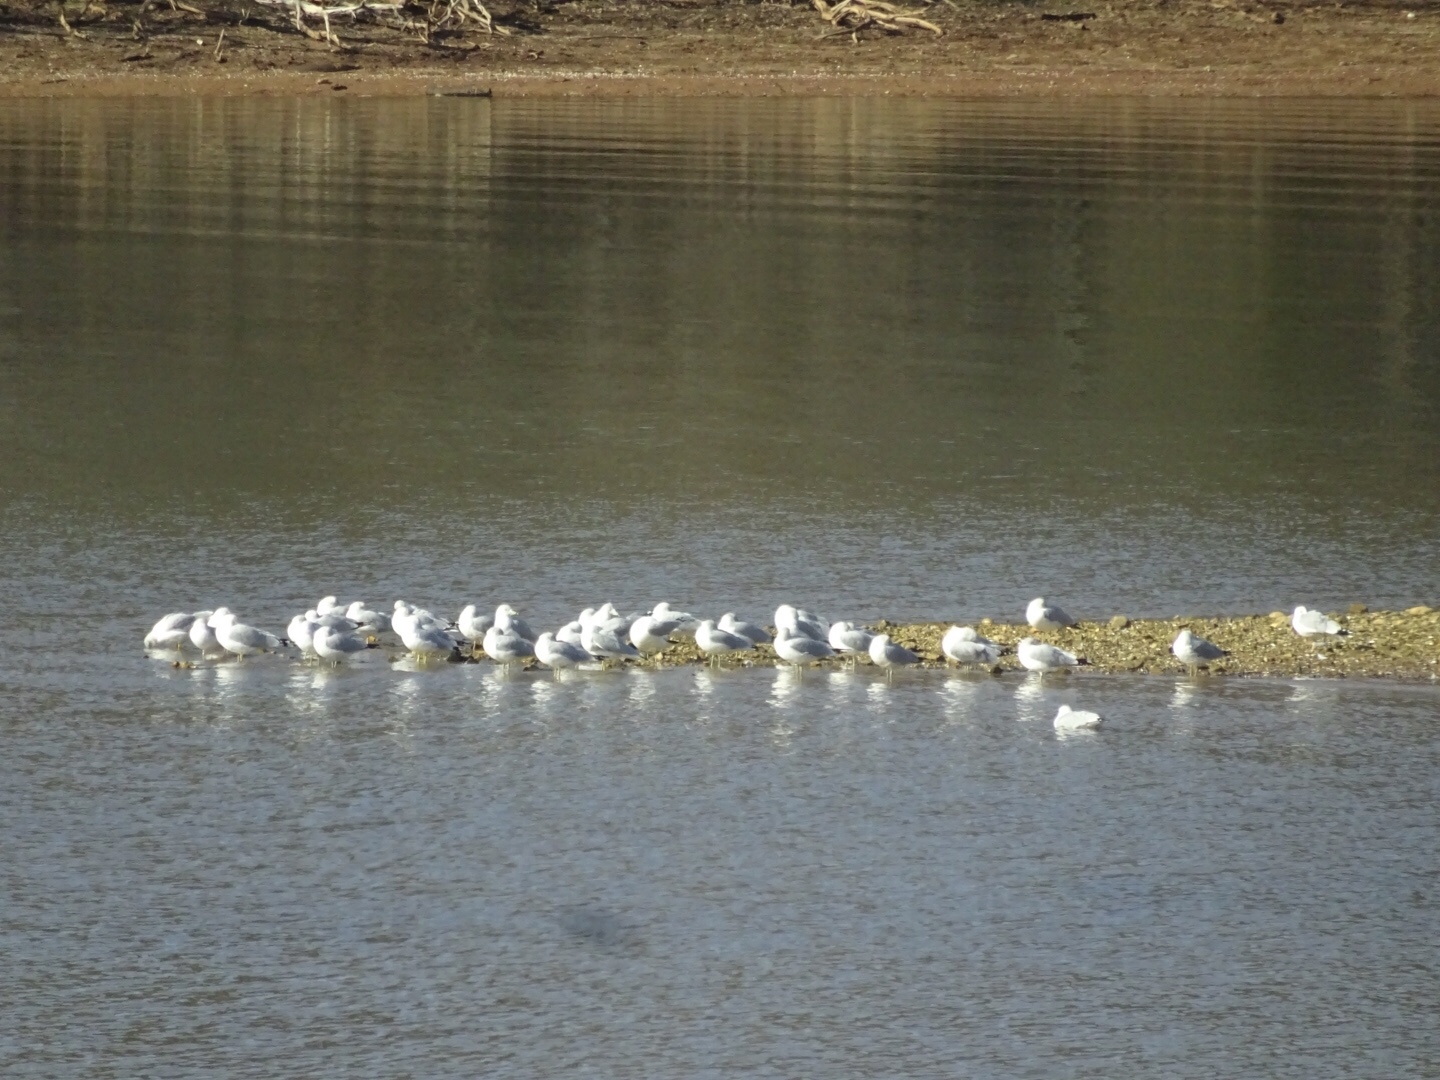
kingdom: Animalia
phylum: Chordata
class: Aves
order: Charadriiformes
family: Laridae
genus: Larus
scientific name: Larus delawarensis
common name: Ring-billed gull
